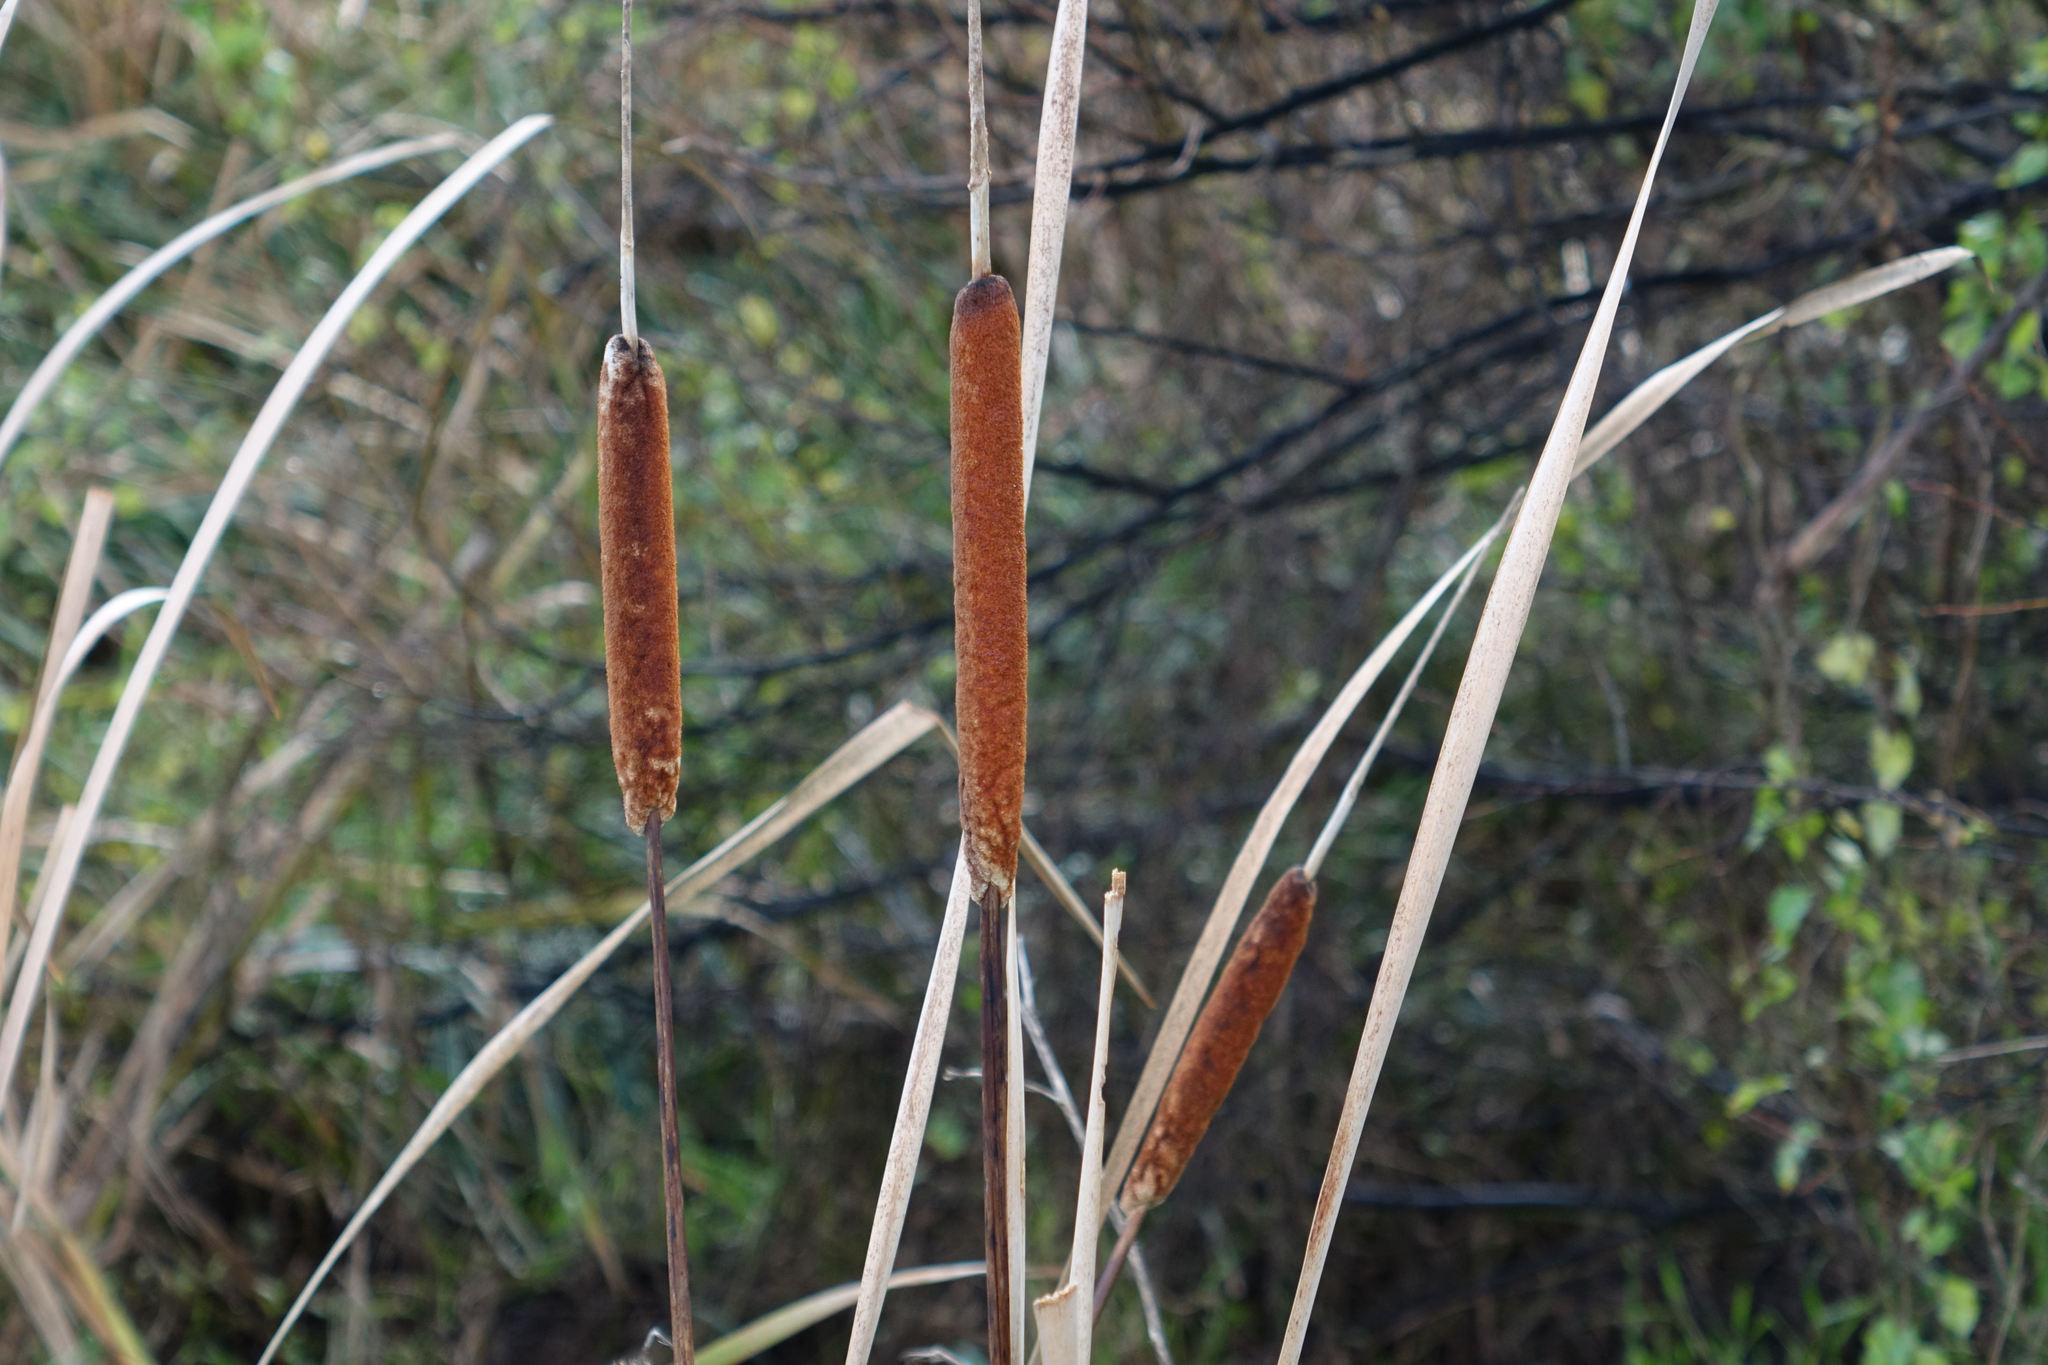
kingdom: Plantae
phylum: Tracheophyta
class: Liliopsida
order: Poales
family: Typhaceae
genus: Typha
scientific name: Typha orientalis
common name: Bullrush
